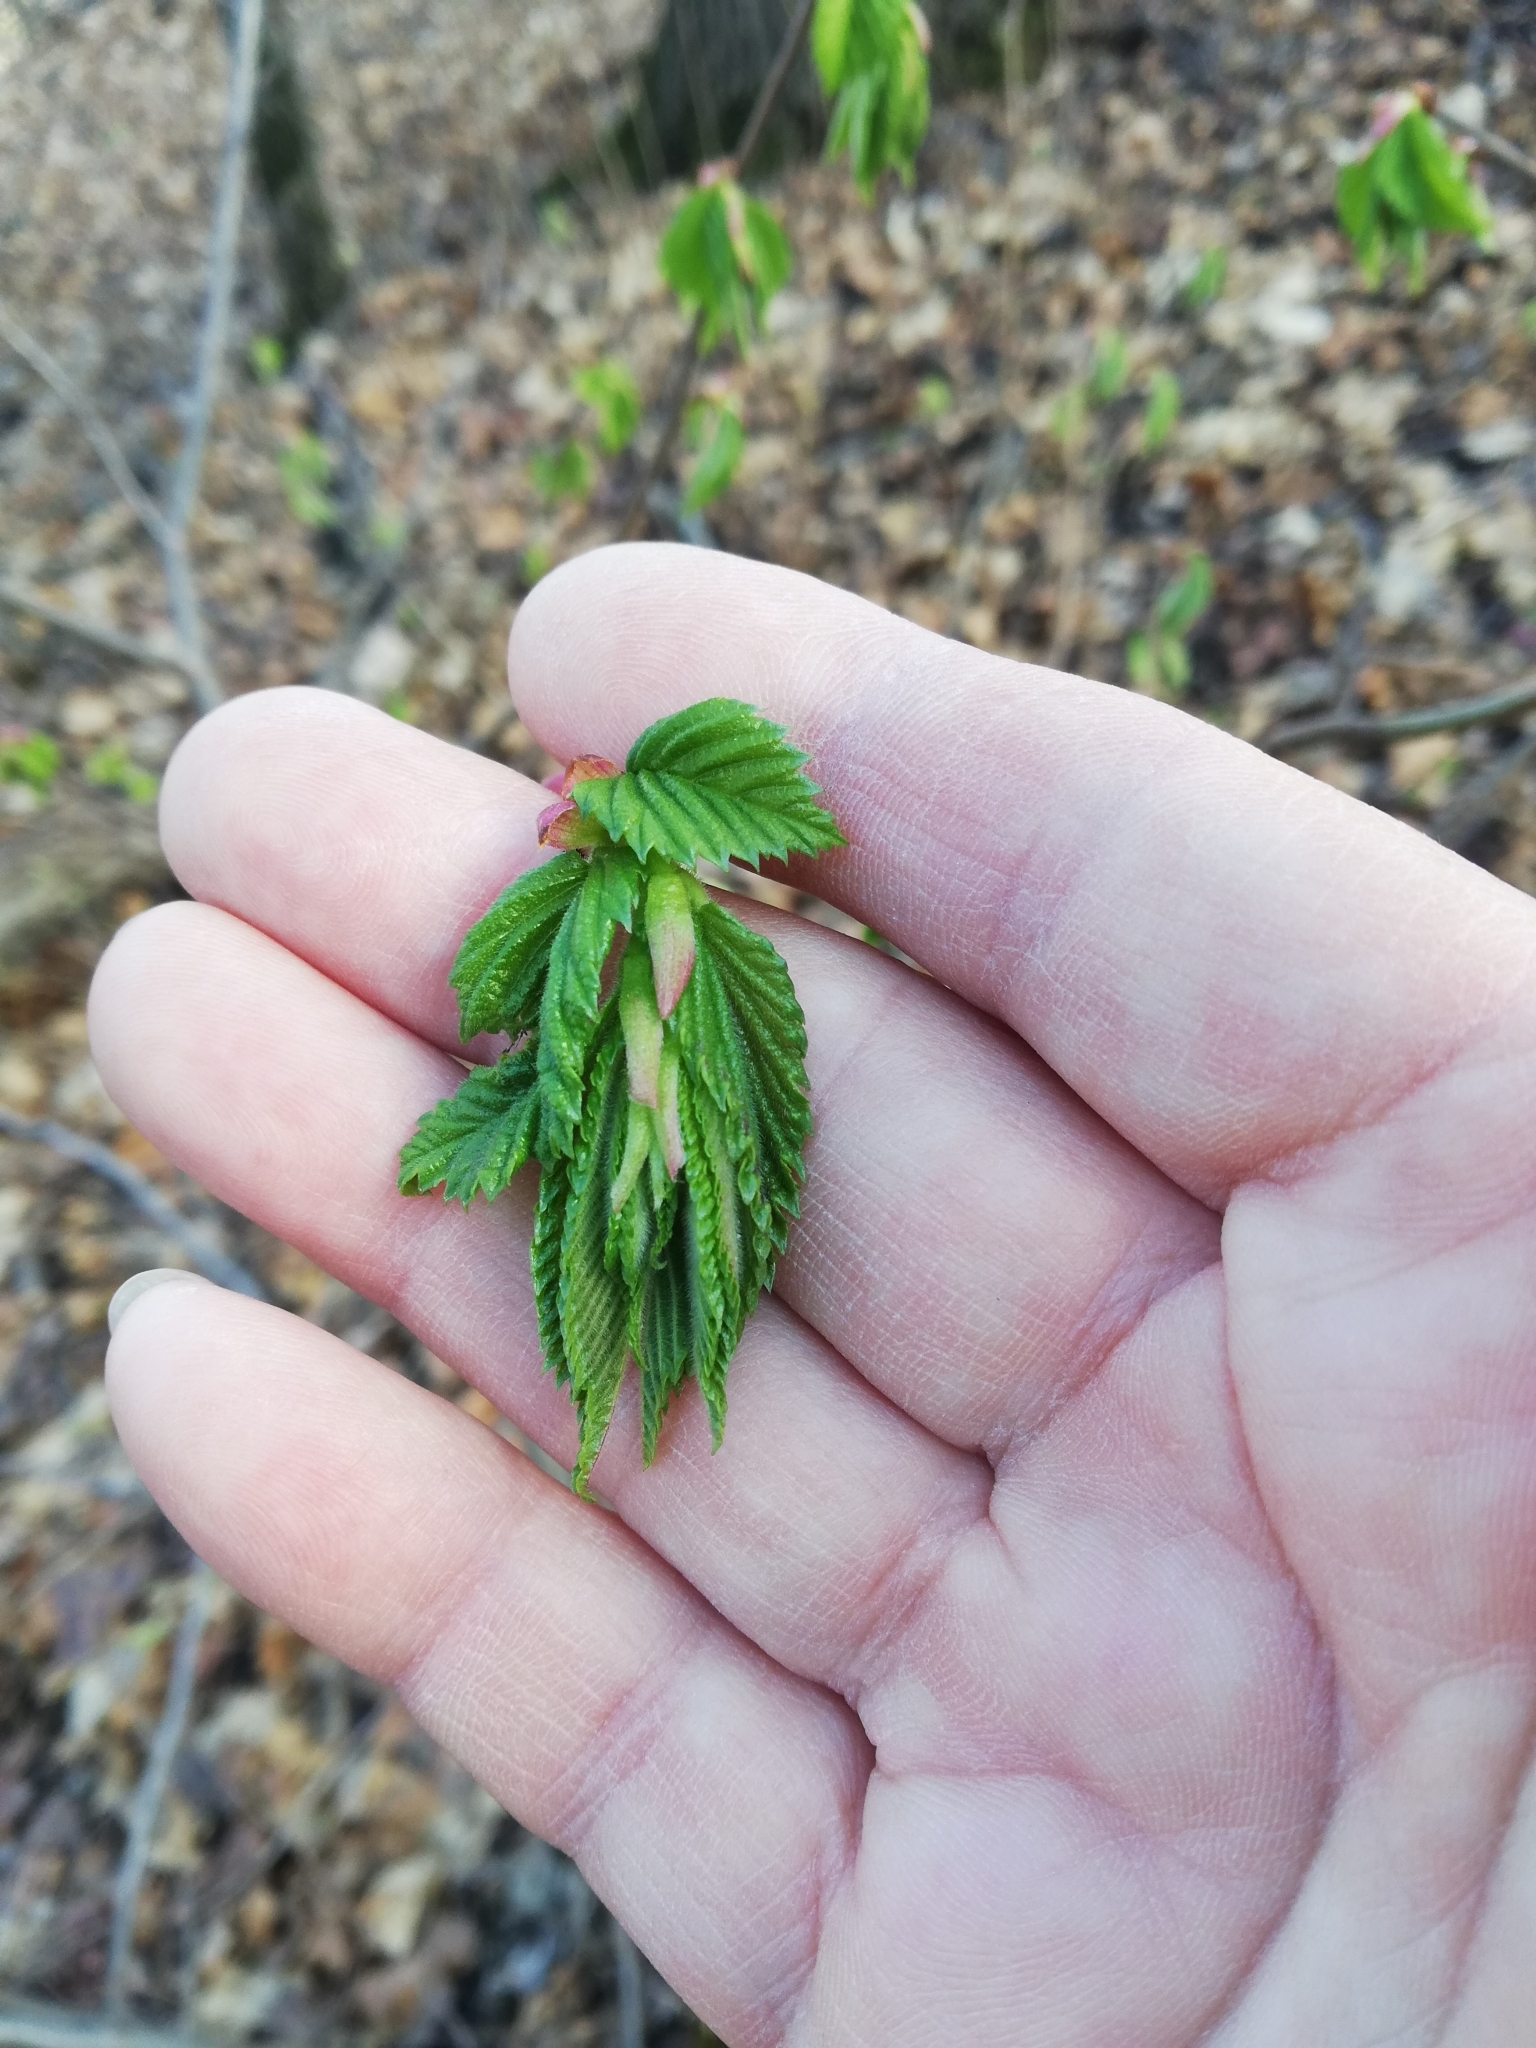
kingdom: Plantae
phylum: Tracheophyta
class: Magnoliopsida
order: Rosales
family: Ulmaceae
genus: Ulmus
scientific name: Ulmus glabra
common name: Wych elm
